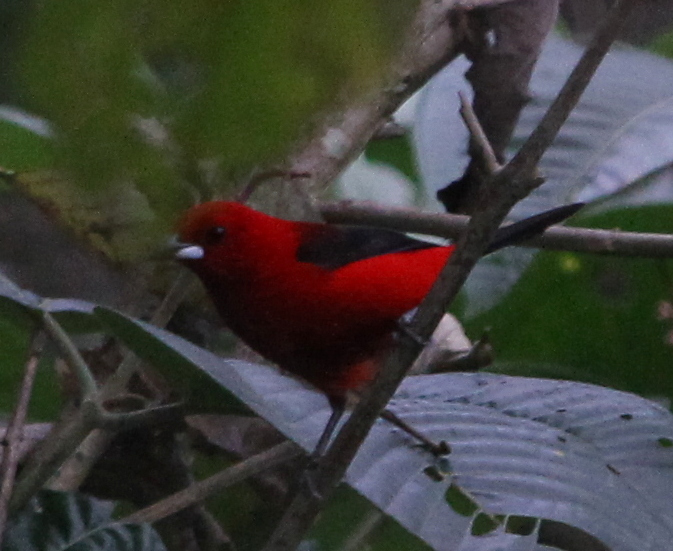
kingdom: Animalia
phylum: Chordata
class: Aves
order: Passeriformes
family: Thraupidae
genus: Ramphocelus
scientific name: Ramphocelus bresilia
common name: Brazilian tanager
